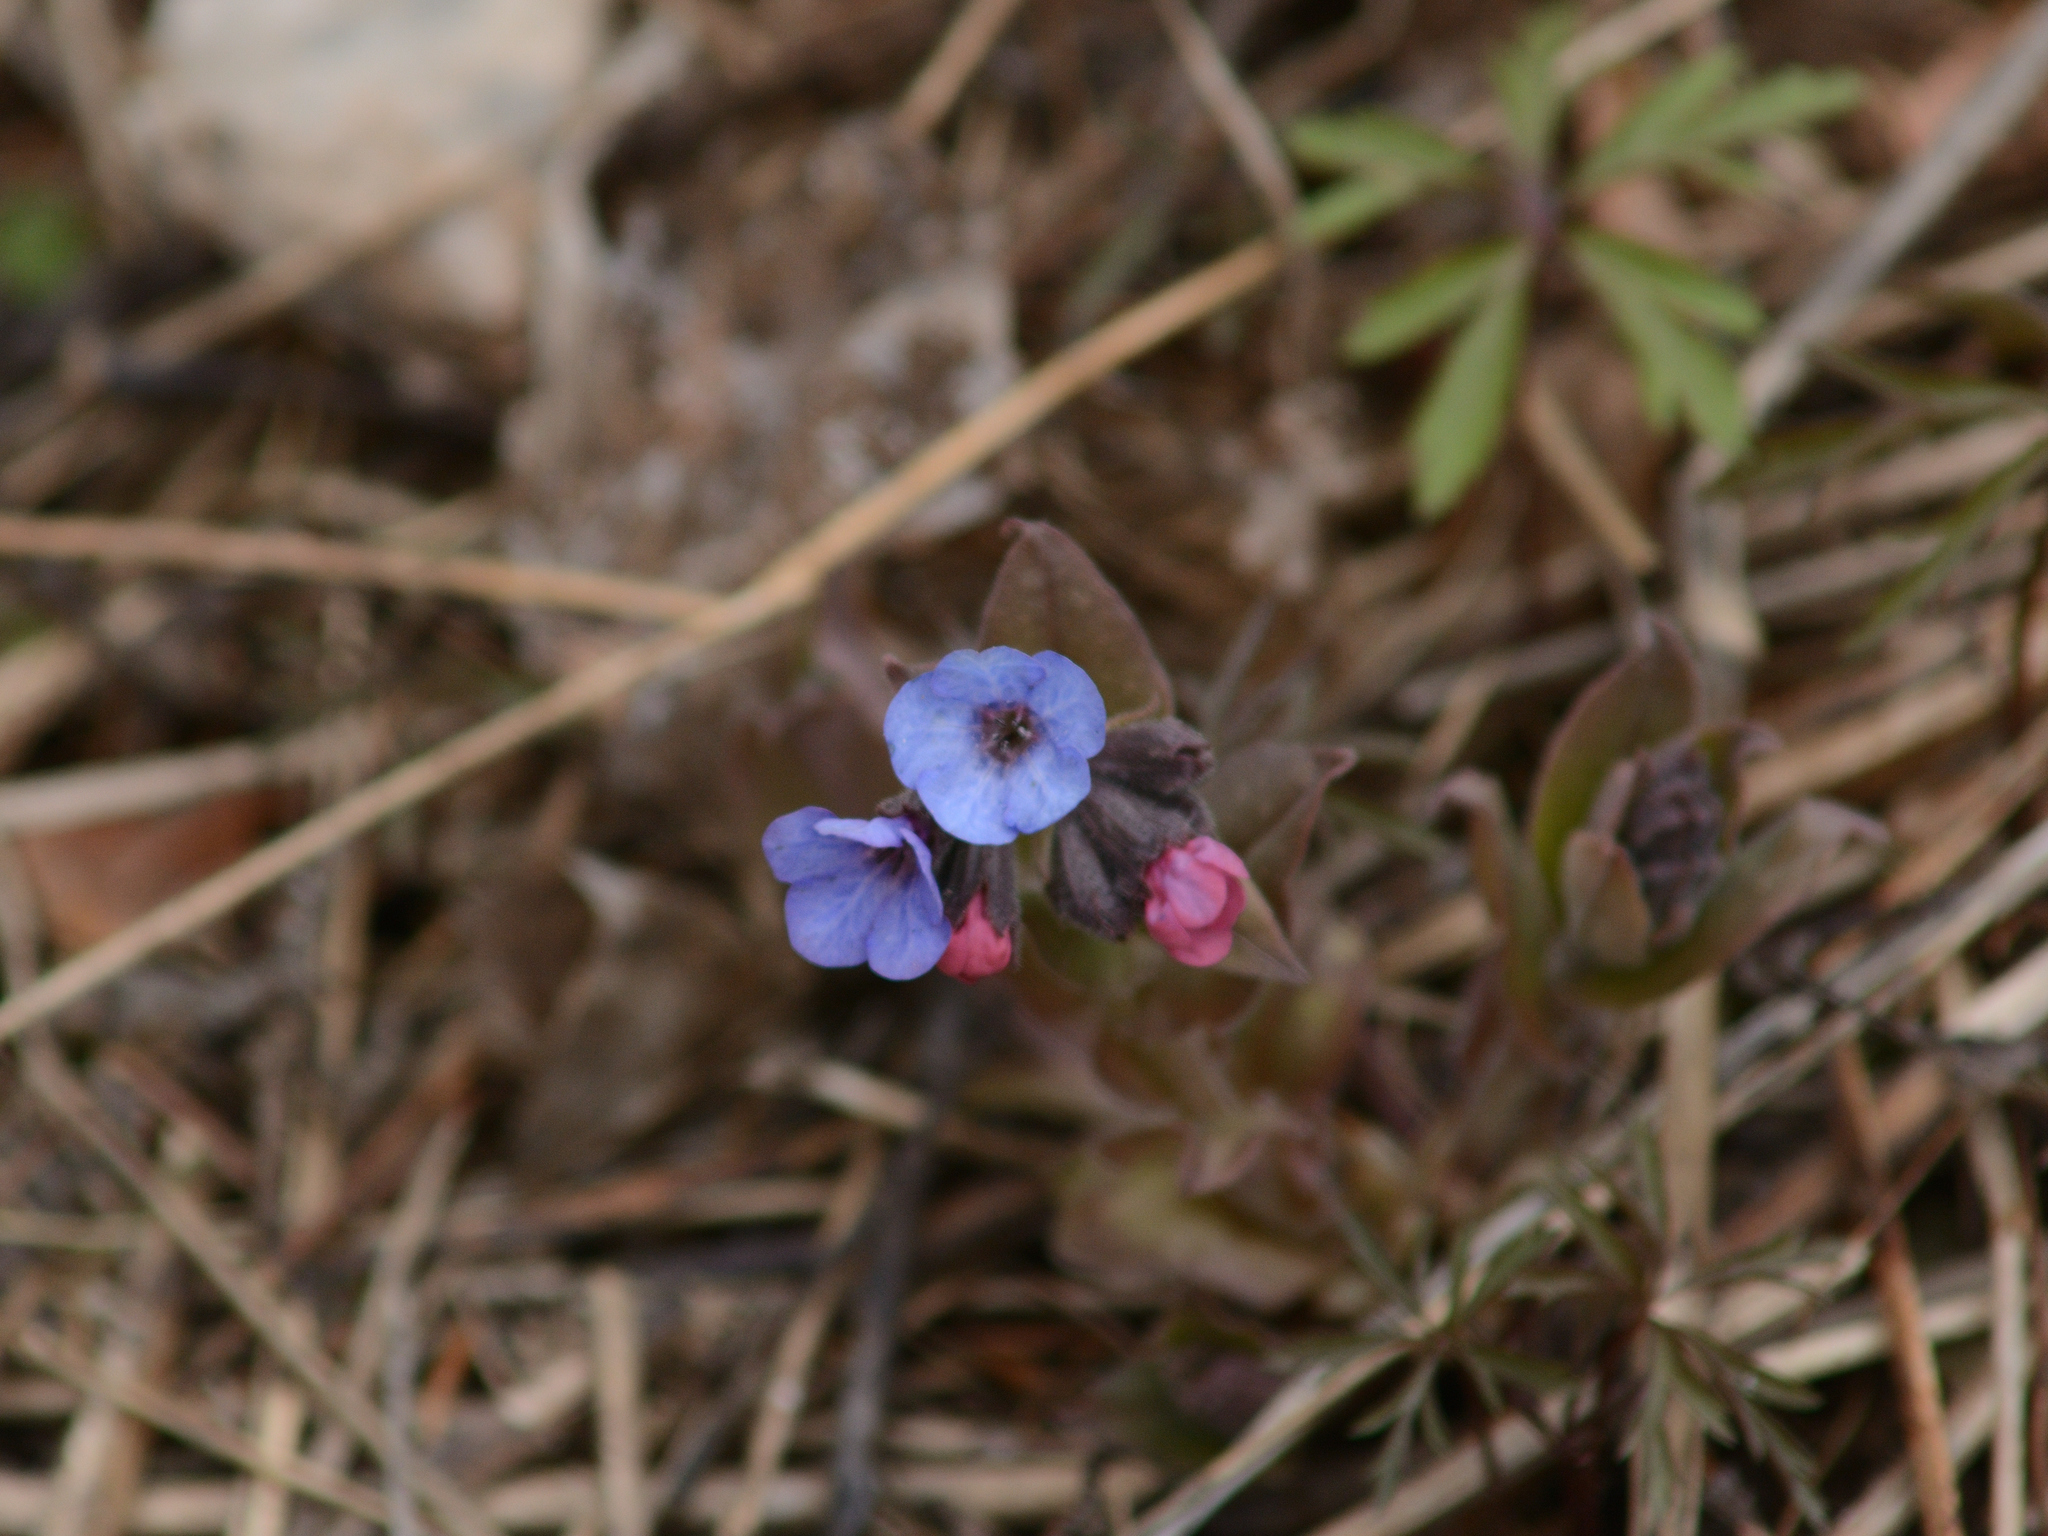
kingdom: Plantae
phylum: Tracheophyta
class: Magnoliopsida
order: Boraginales
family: Boraginaceae
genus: Pulmonaria
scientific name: Pulmonaria obscura
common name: Suffolk lungwort
